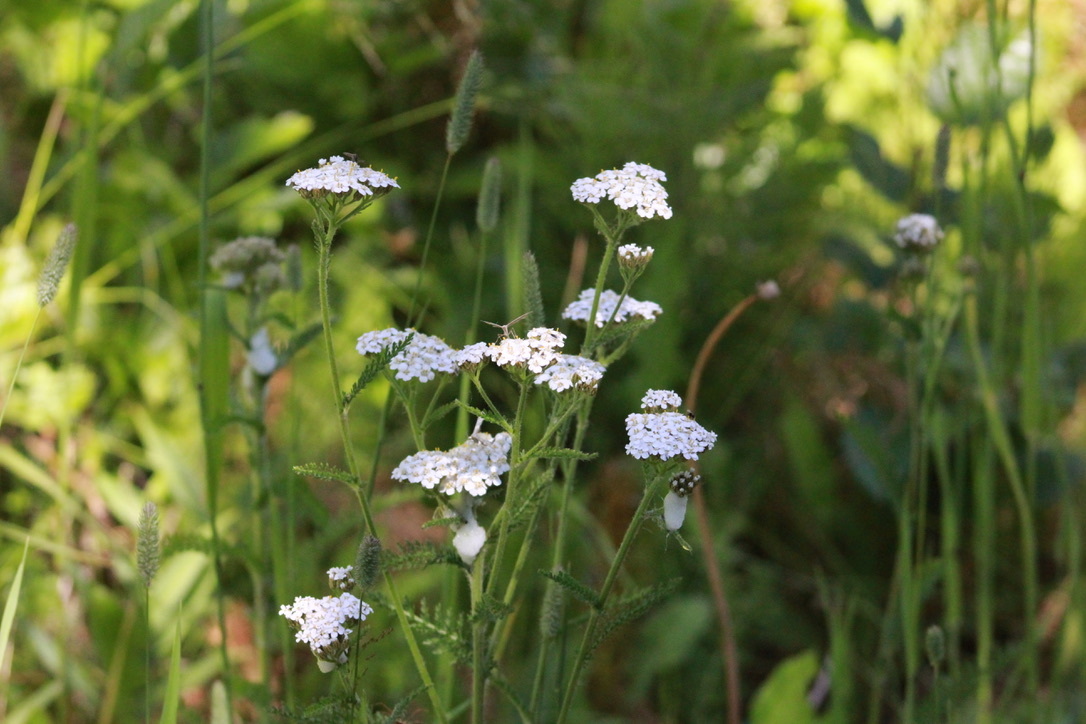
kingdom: Plantae
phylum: Tracheophyta
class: Magnoliopsida
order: Asterales
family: Asteraceae
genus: Achillea
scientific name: Achillea millefolium
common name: Yarrow
